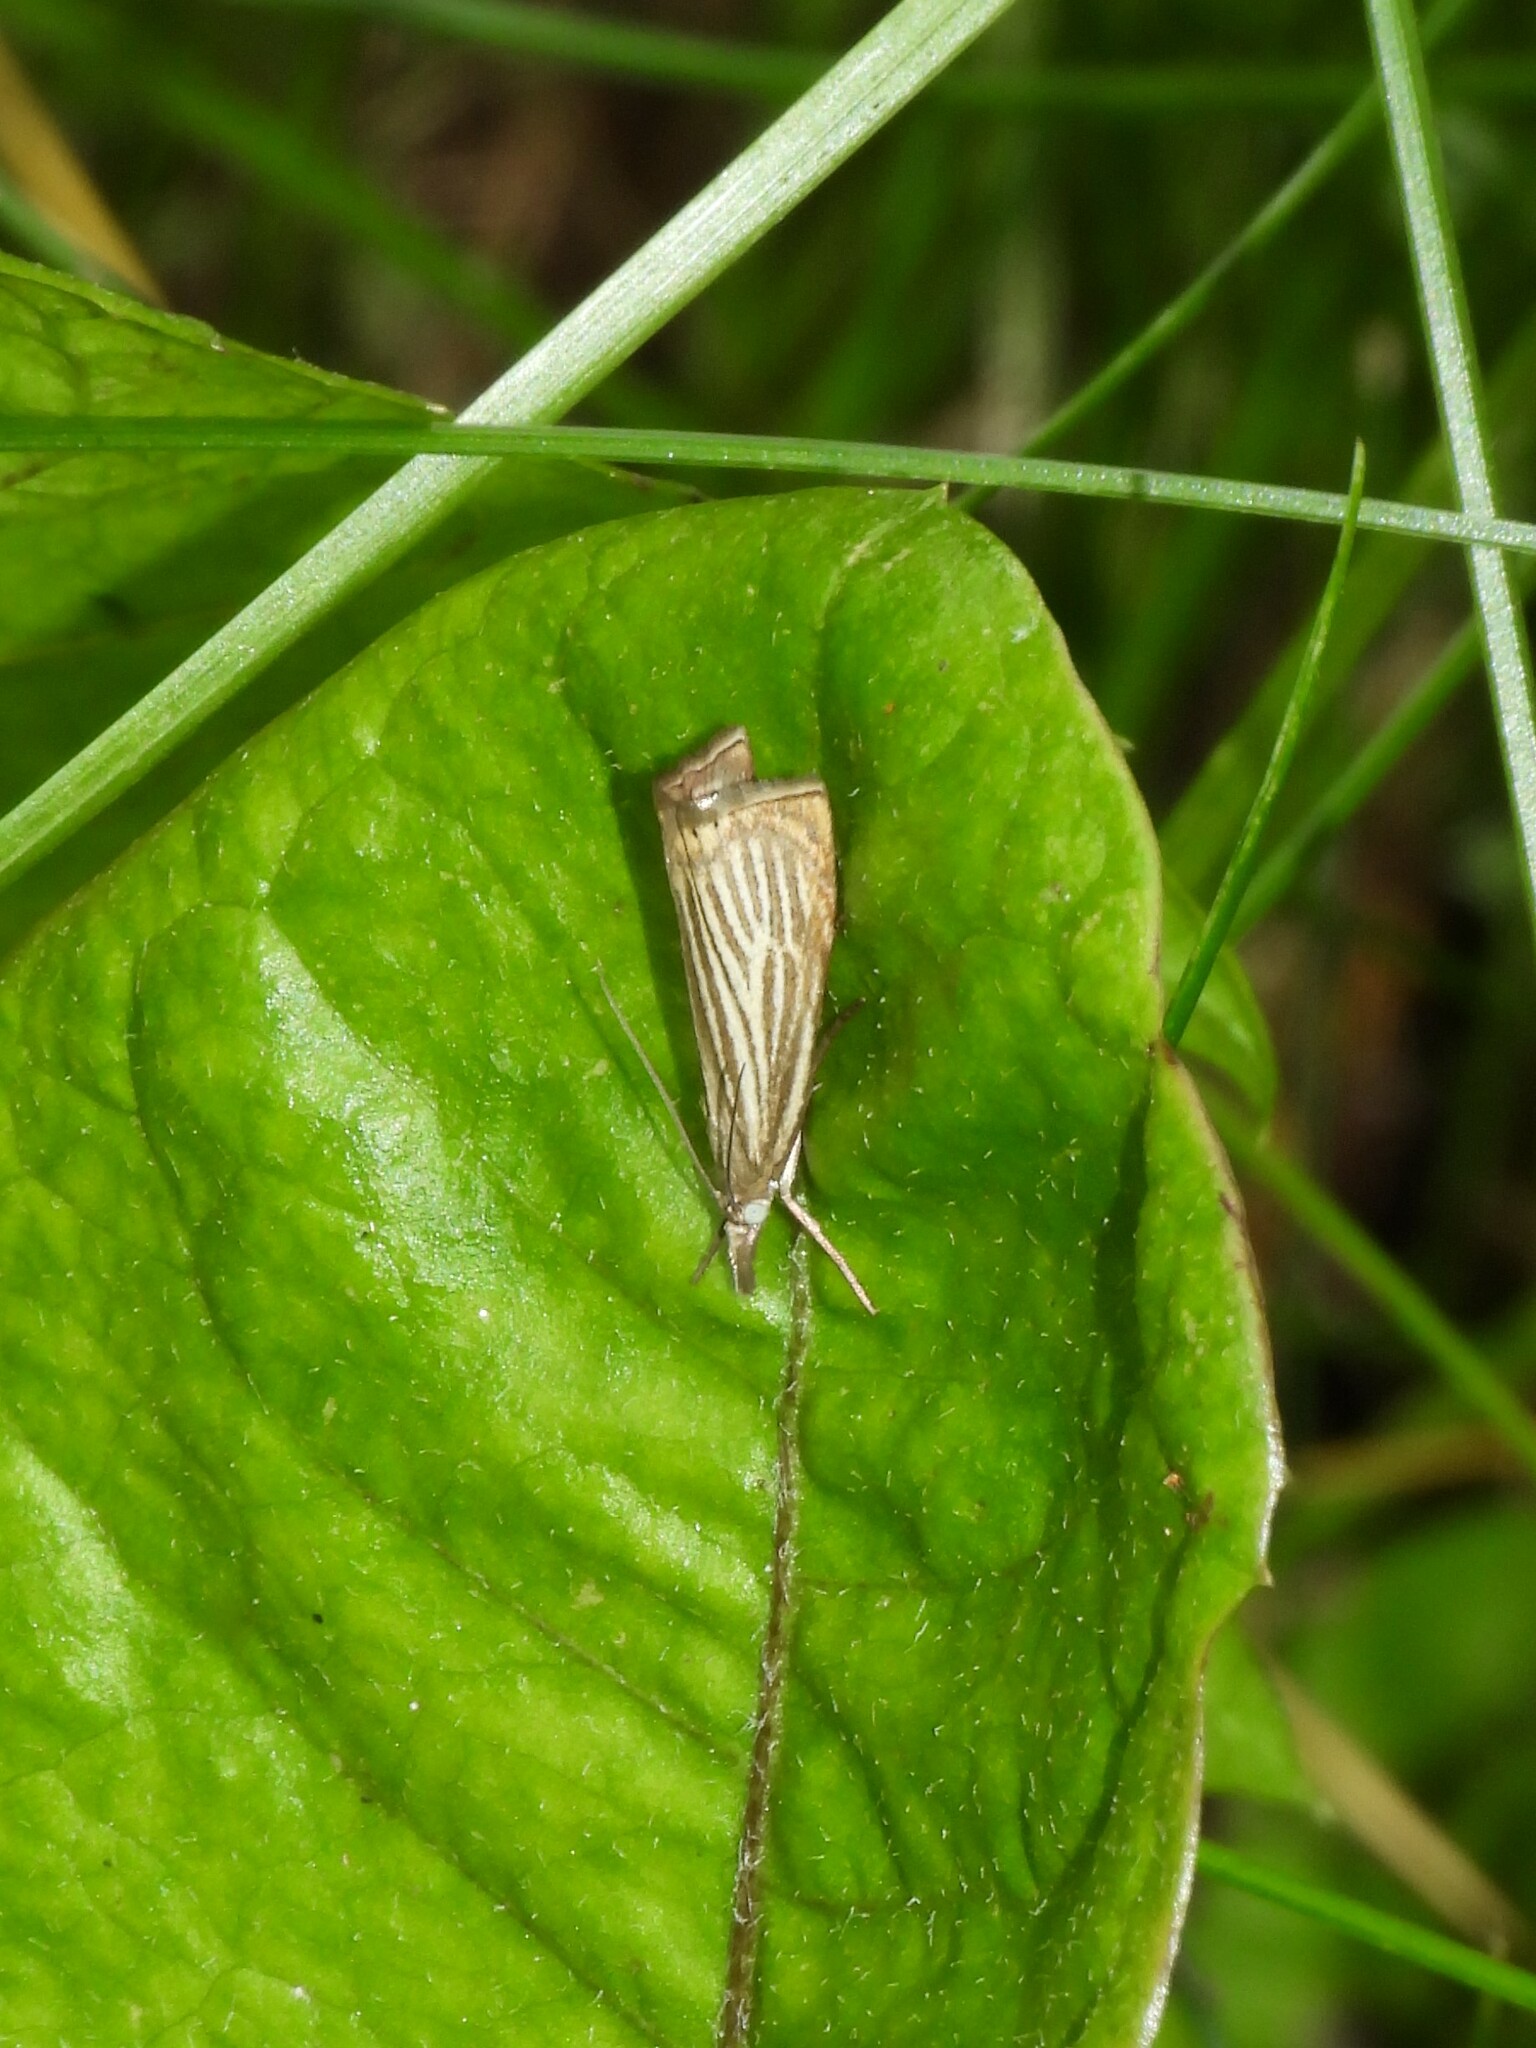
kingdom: Animalia
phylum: Arthropoda
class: Insecta
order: Lepidoptera
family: Crambidae
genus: Chrysoteuchia
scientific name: Chrysoteuchia culmella
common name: Garden grass-veneer
